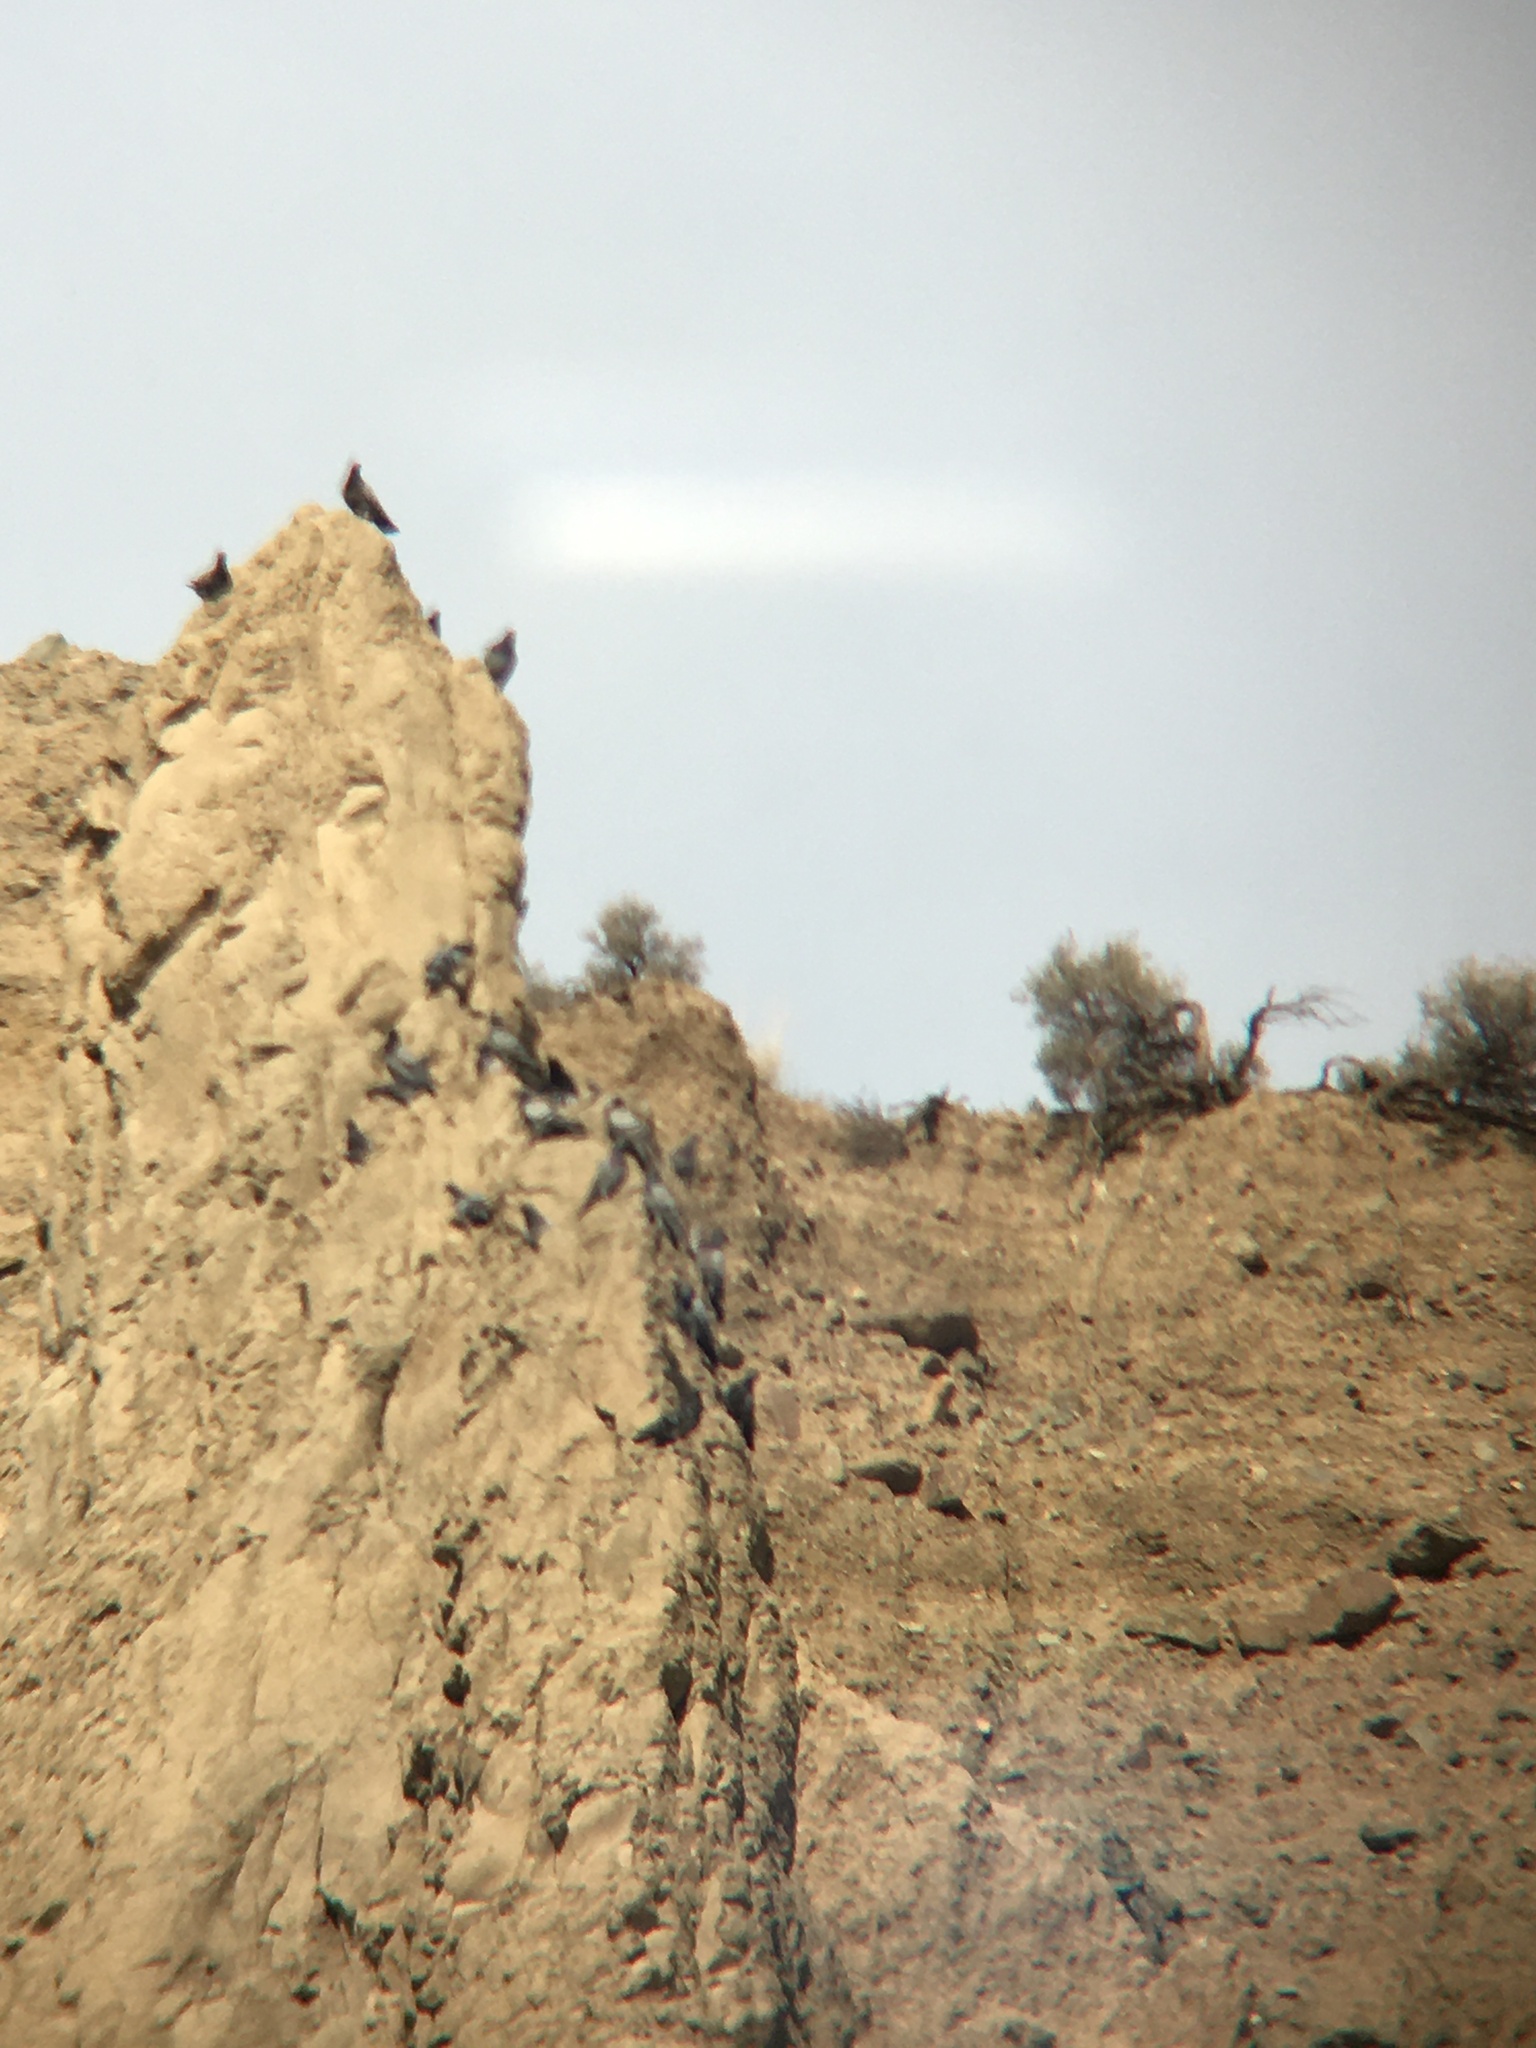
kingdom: Animalia
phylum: Chordata
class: Aves
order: Columbiformes
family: Columbidae
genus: Columba
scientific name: Columba livia
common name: Rock pigeon
